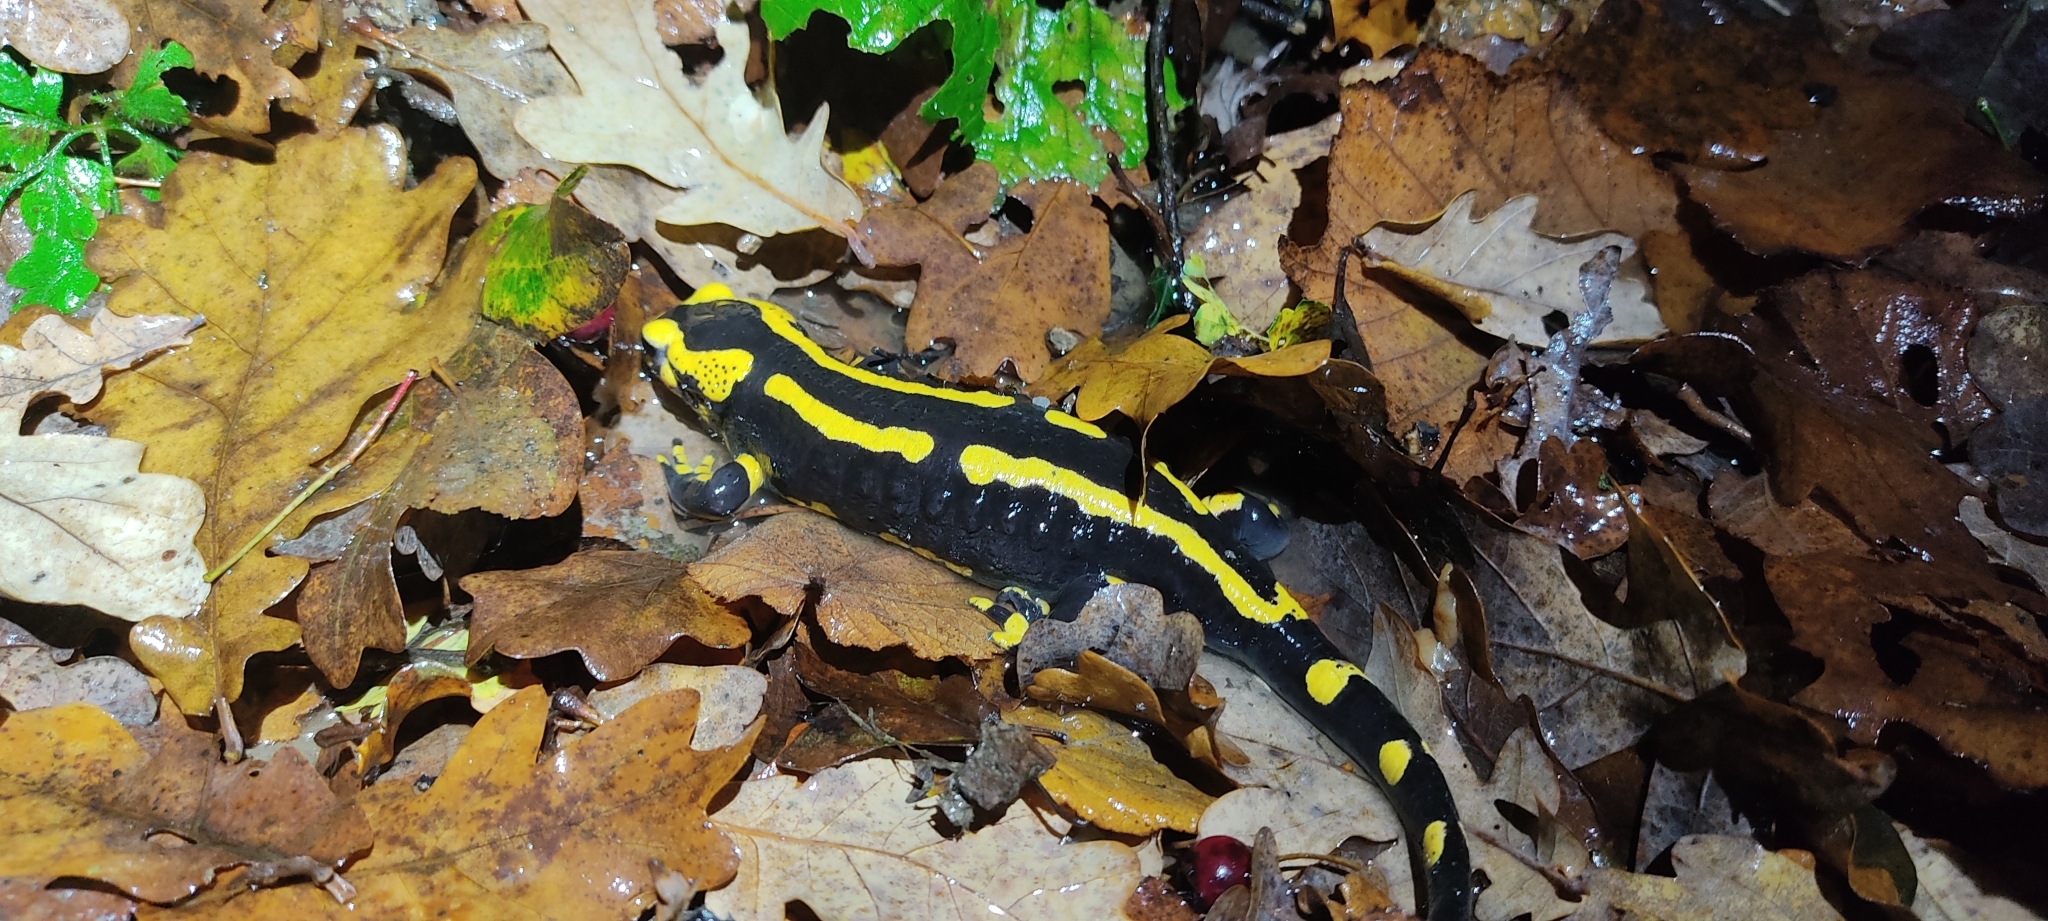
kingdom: Animalia
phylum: Chordata
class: Amphibia
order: Caudata
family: Salamandridae
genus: Salamandra
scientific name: Salamandra salamandra
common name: Fire salamander
